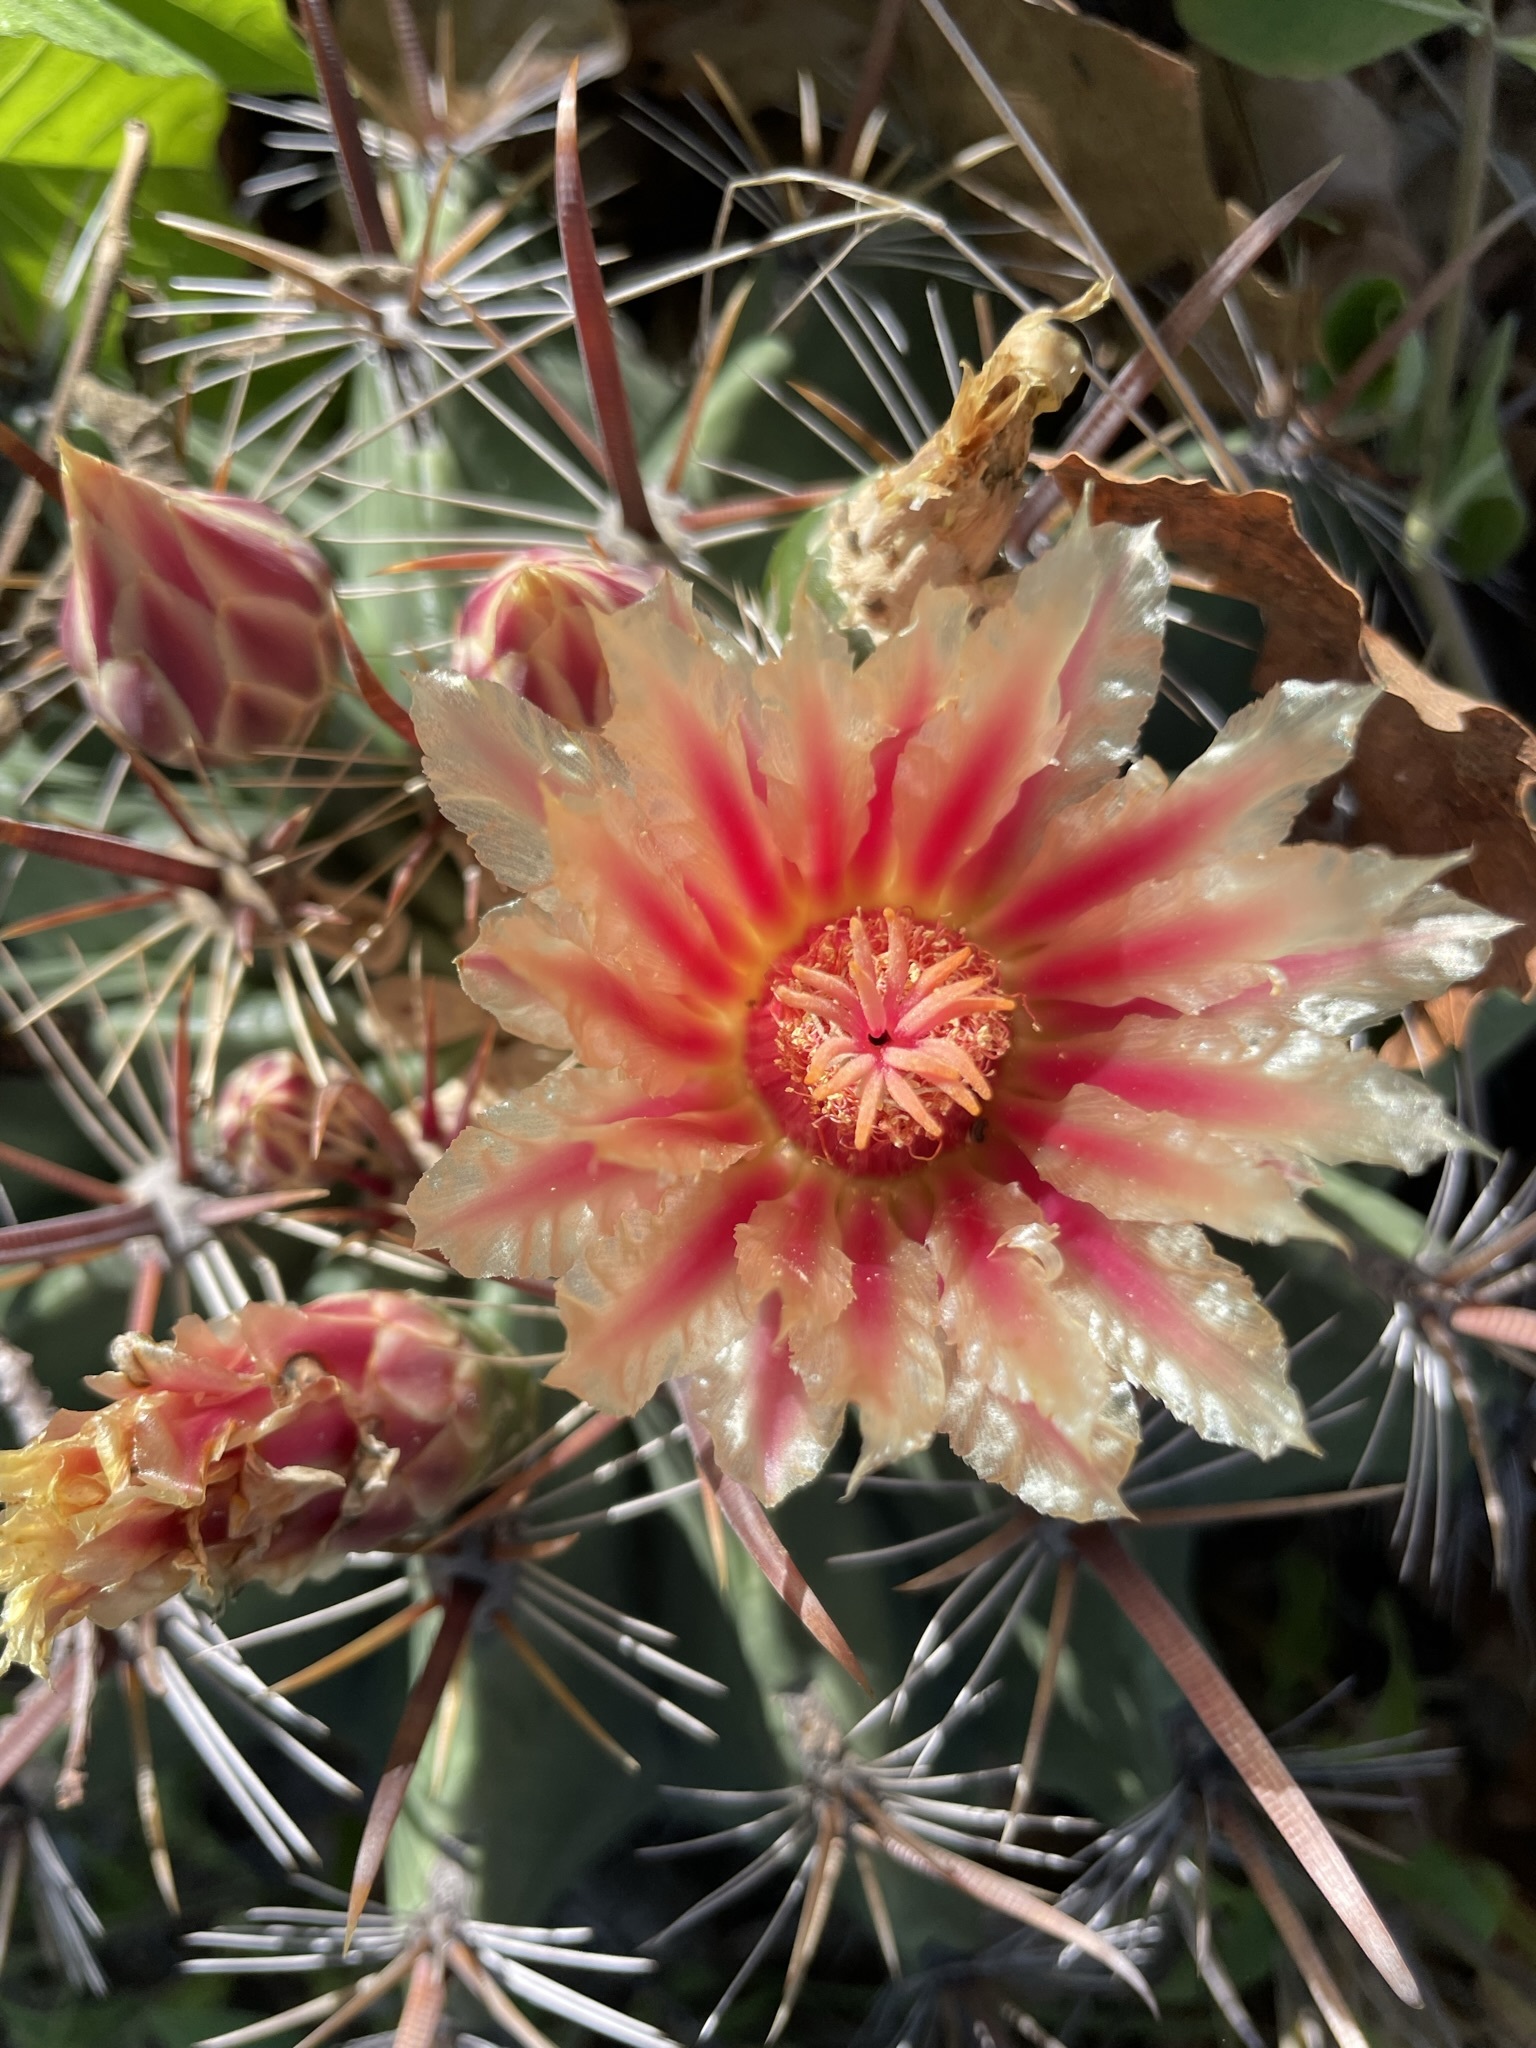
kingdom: Plantae
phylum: Tracheophyta
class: Magnoliopsida
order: Caryophyllales
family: Cactaceae
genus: Ferocactus
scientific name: Ferocactus townsendianus
